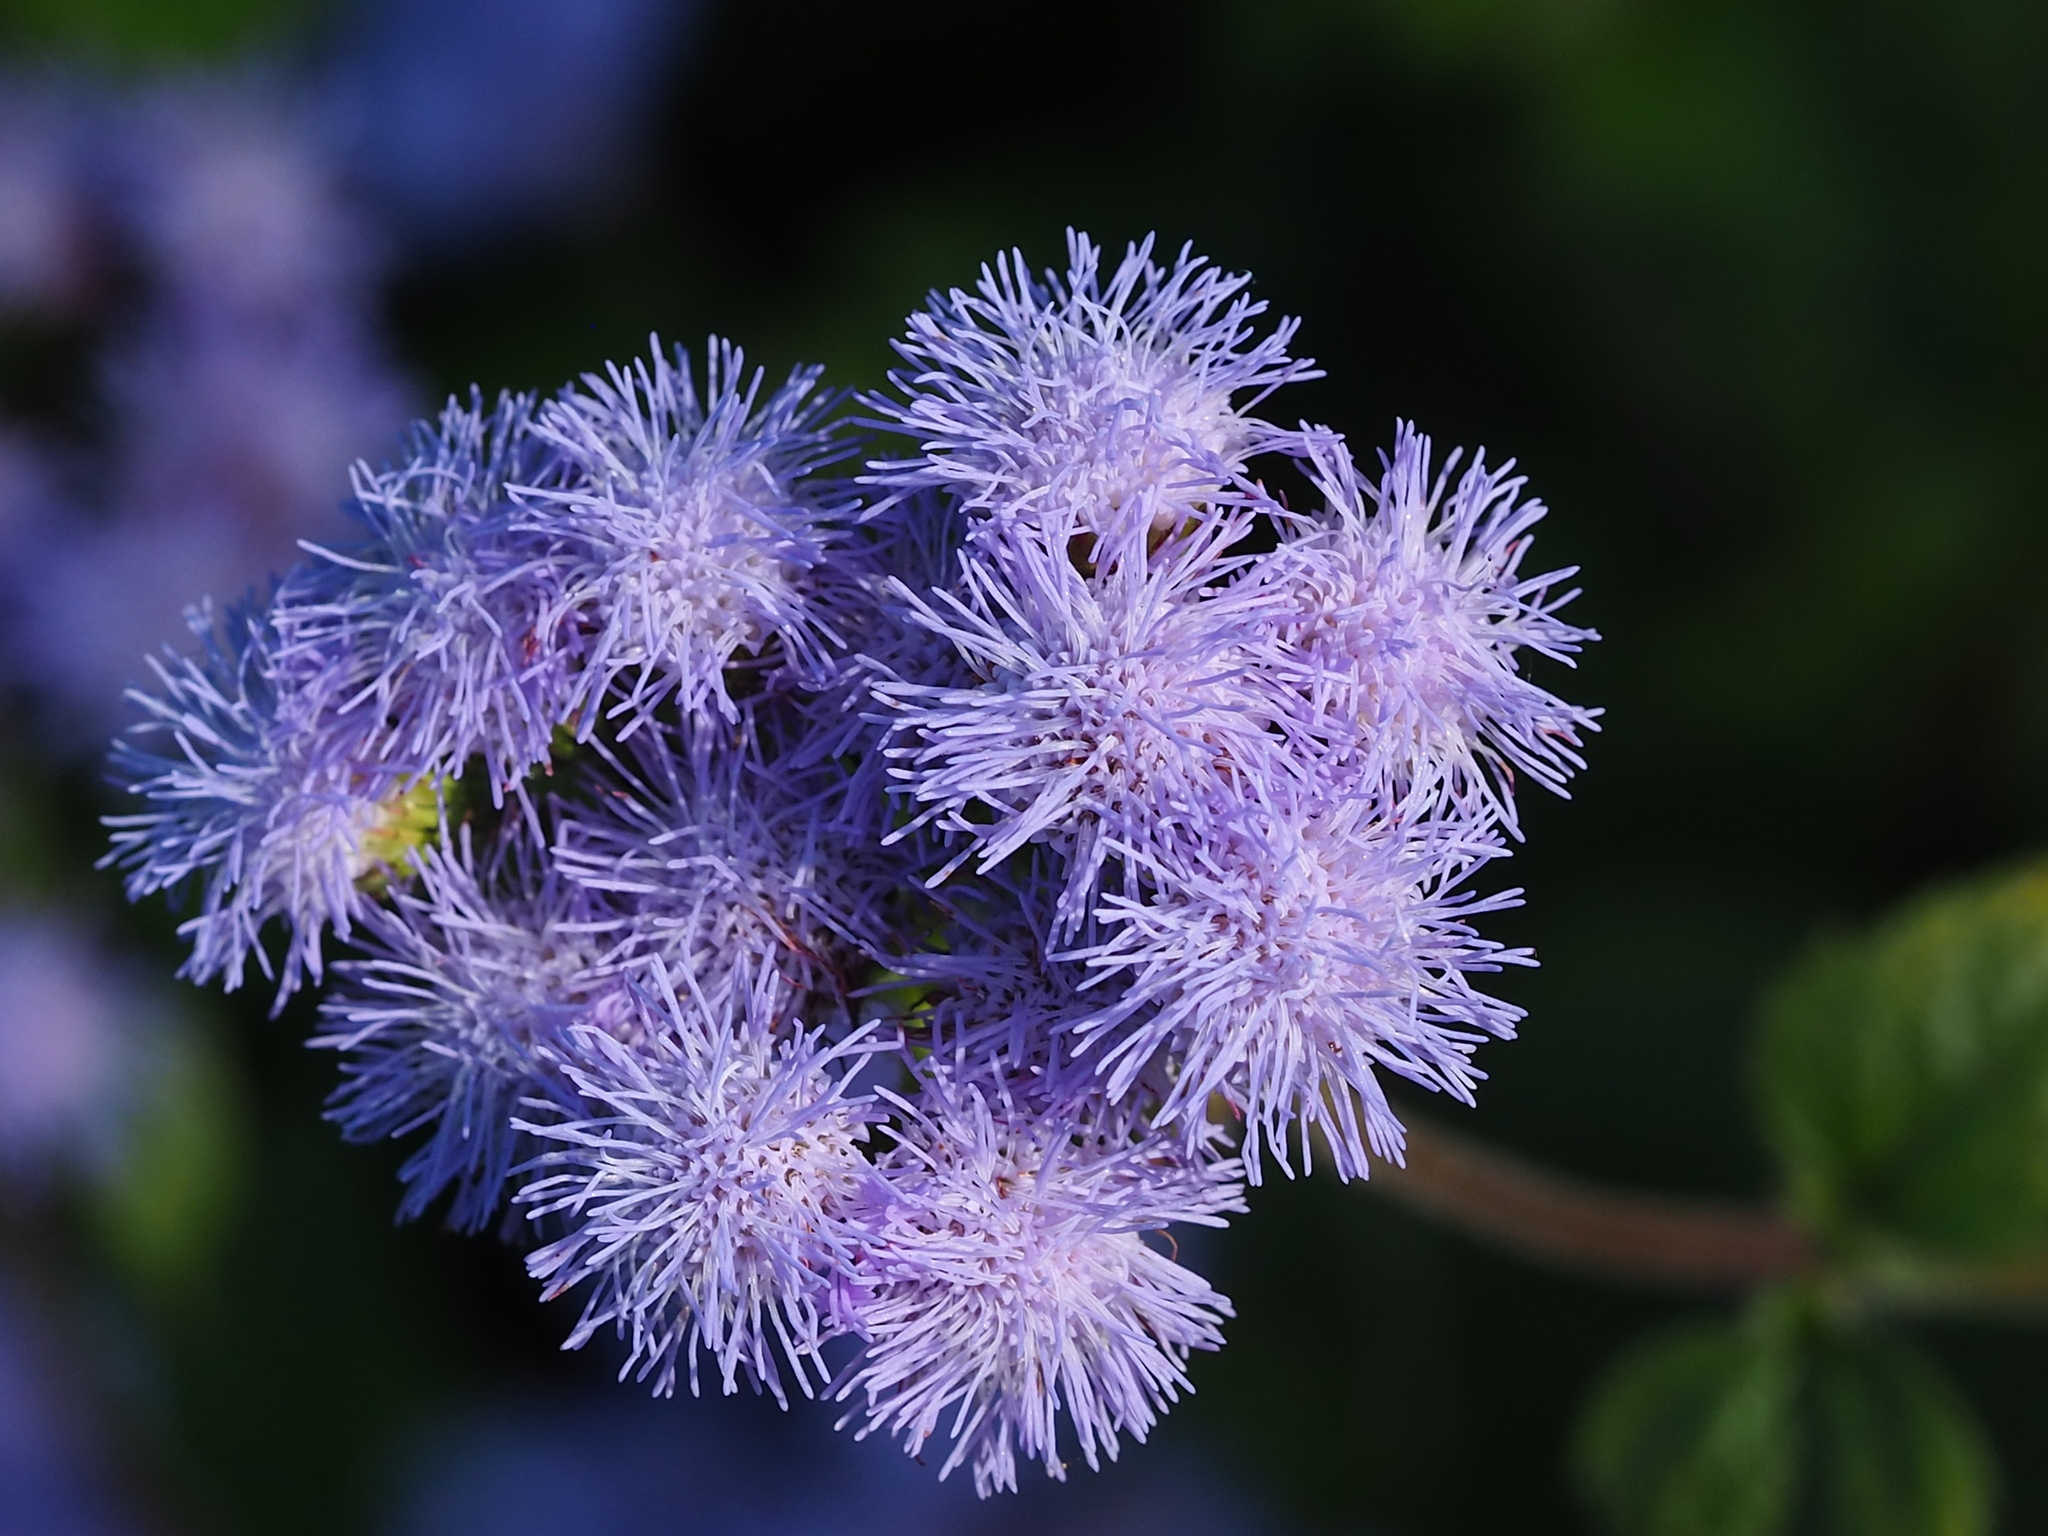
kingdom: Plantae
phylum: Tracheophyta
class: Magnoliopsida
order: Asterales
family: Asteraceae
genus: Ageratum
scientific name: Ageratum houstonianum
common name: Bluemink
